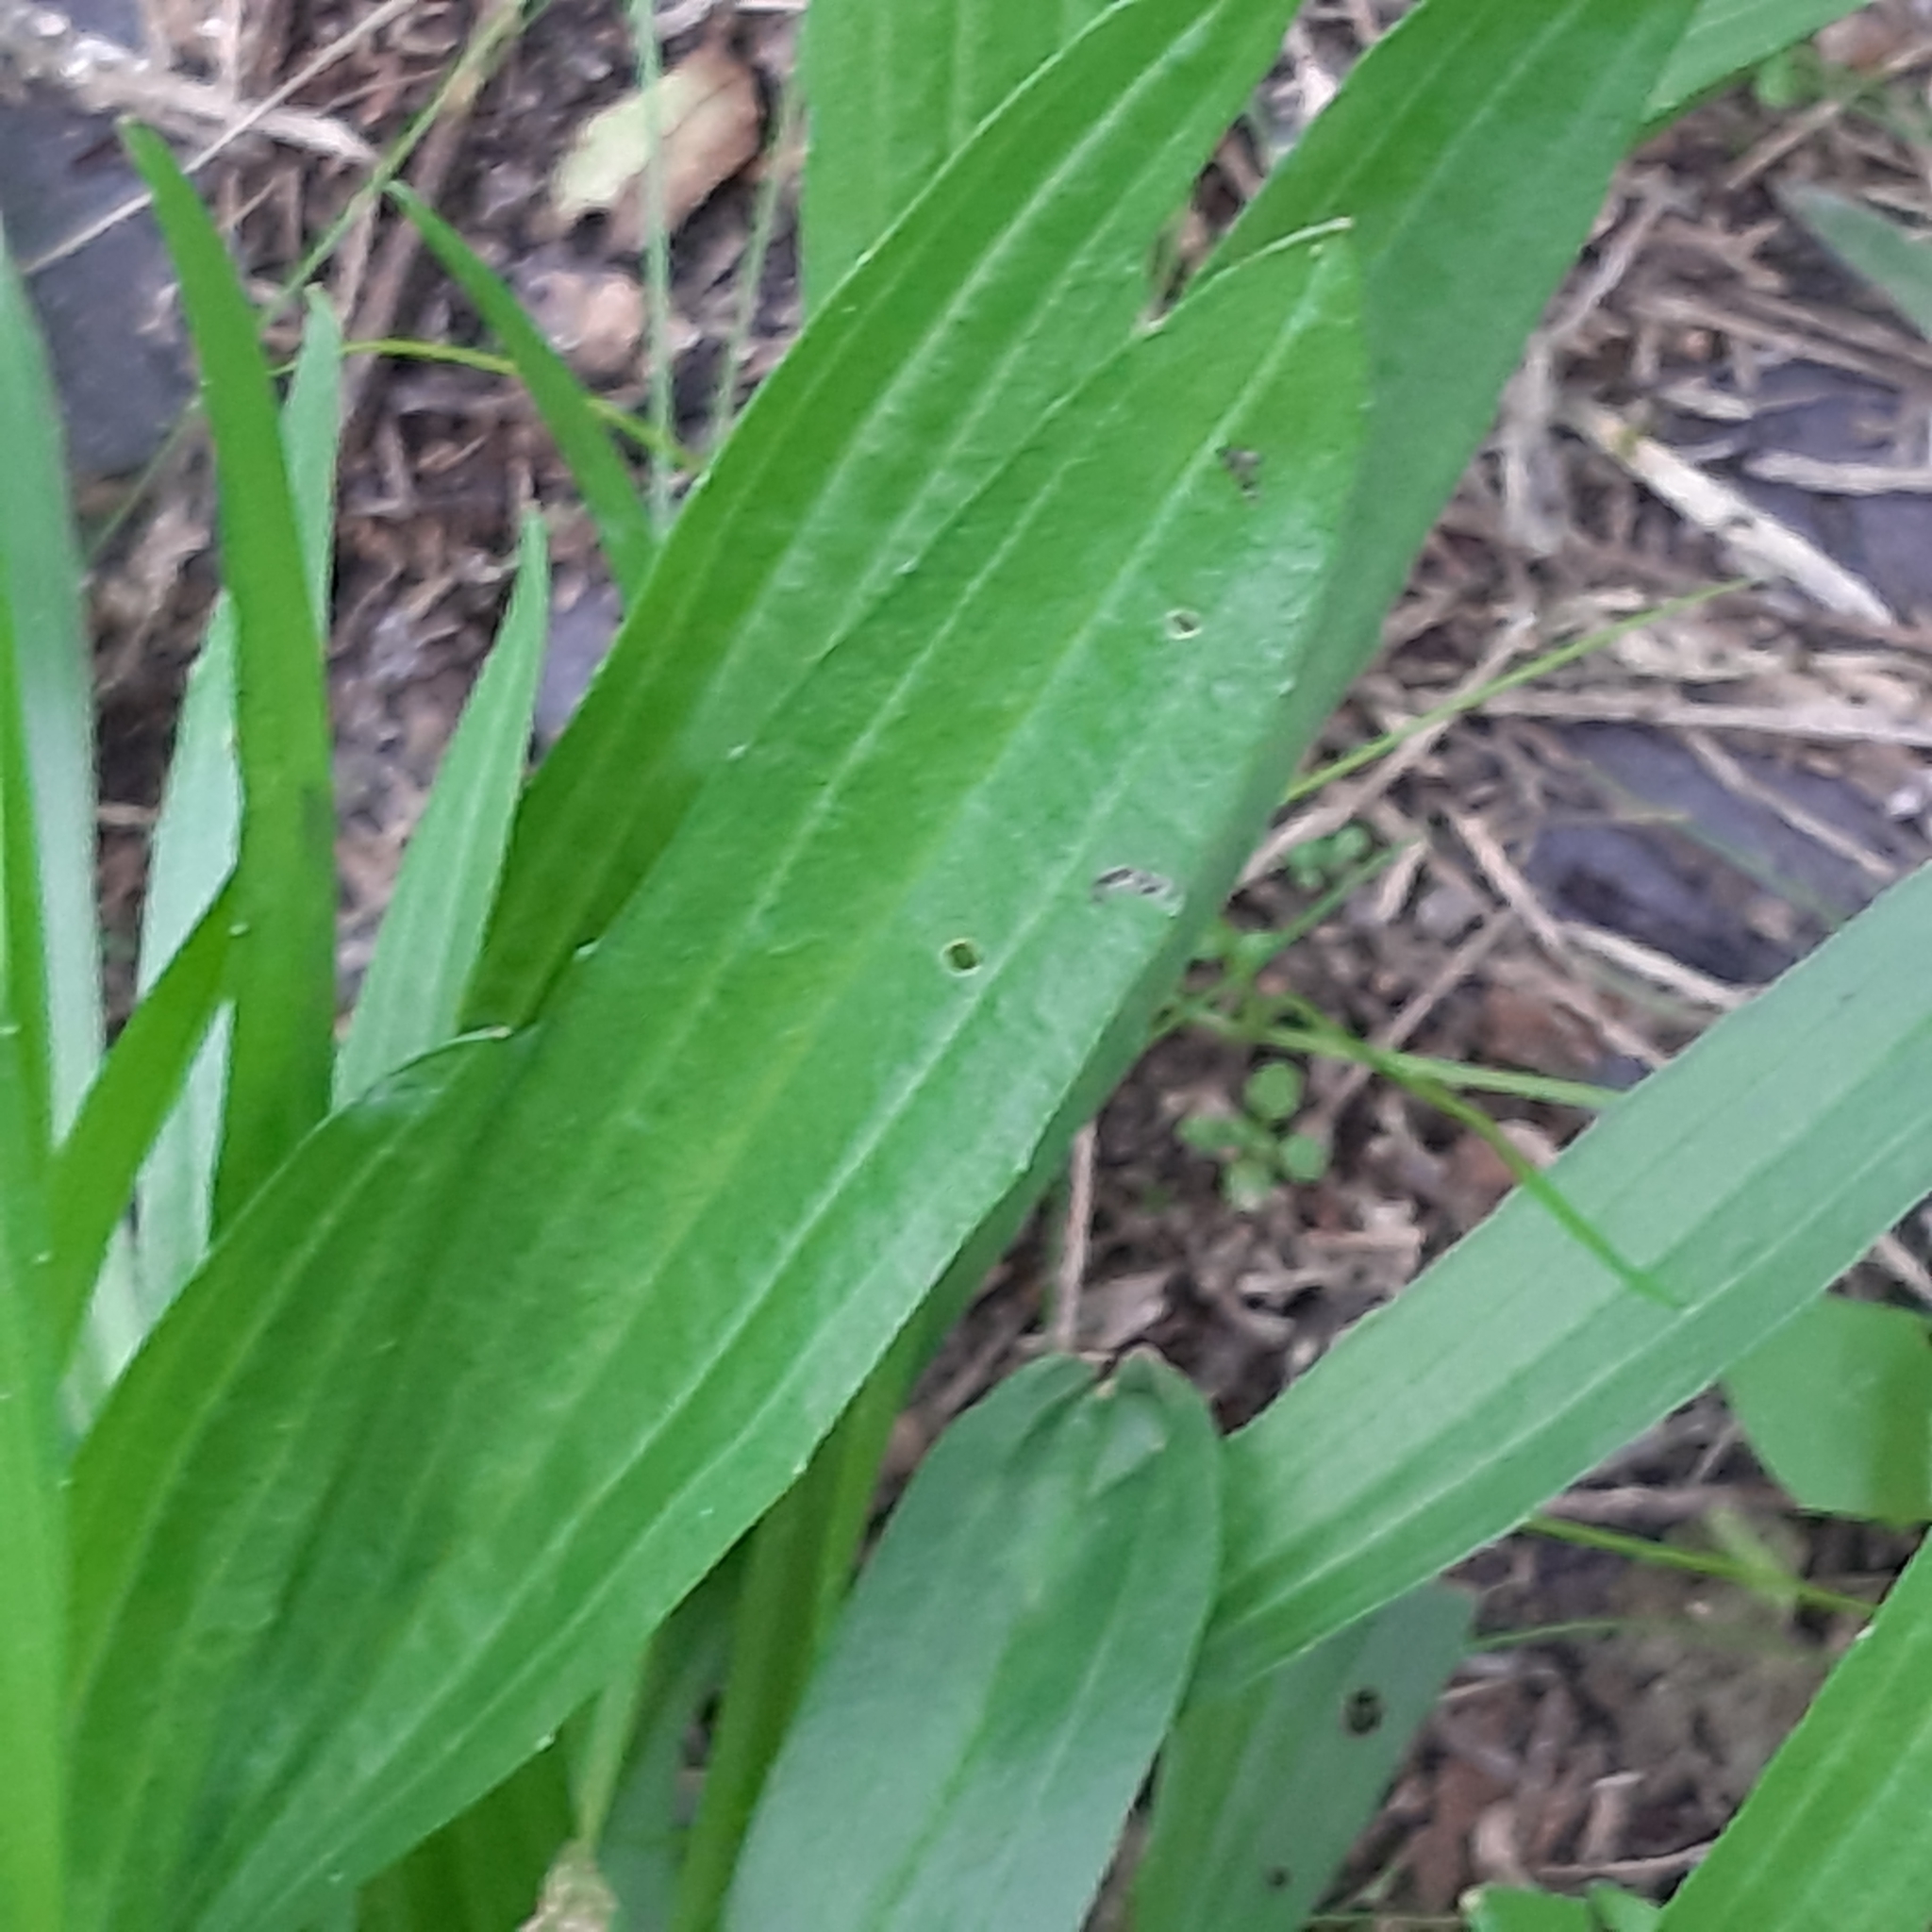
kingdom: Plantae
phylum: Tracheophyta
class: Magnoliopsida
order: Lamiales
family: Plantaginaceae
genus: Plantago
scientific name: Plantago lanceolata
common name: Ribwort plantain
